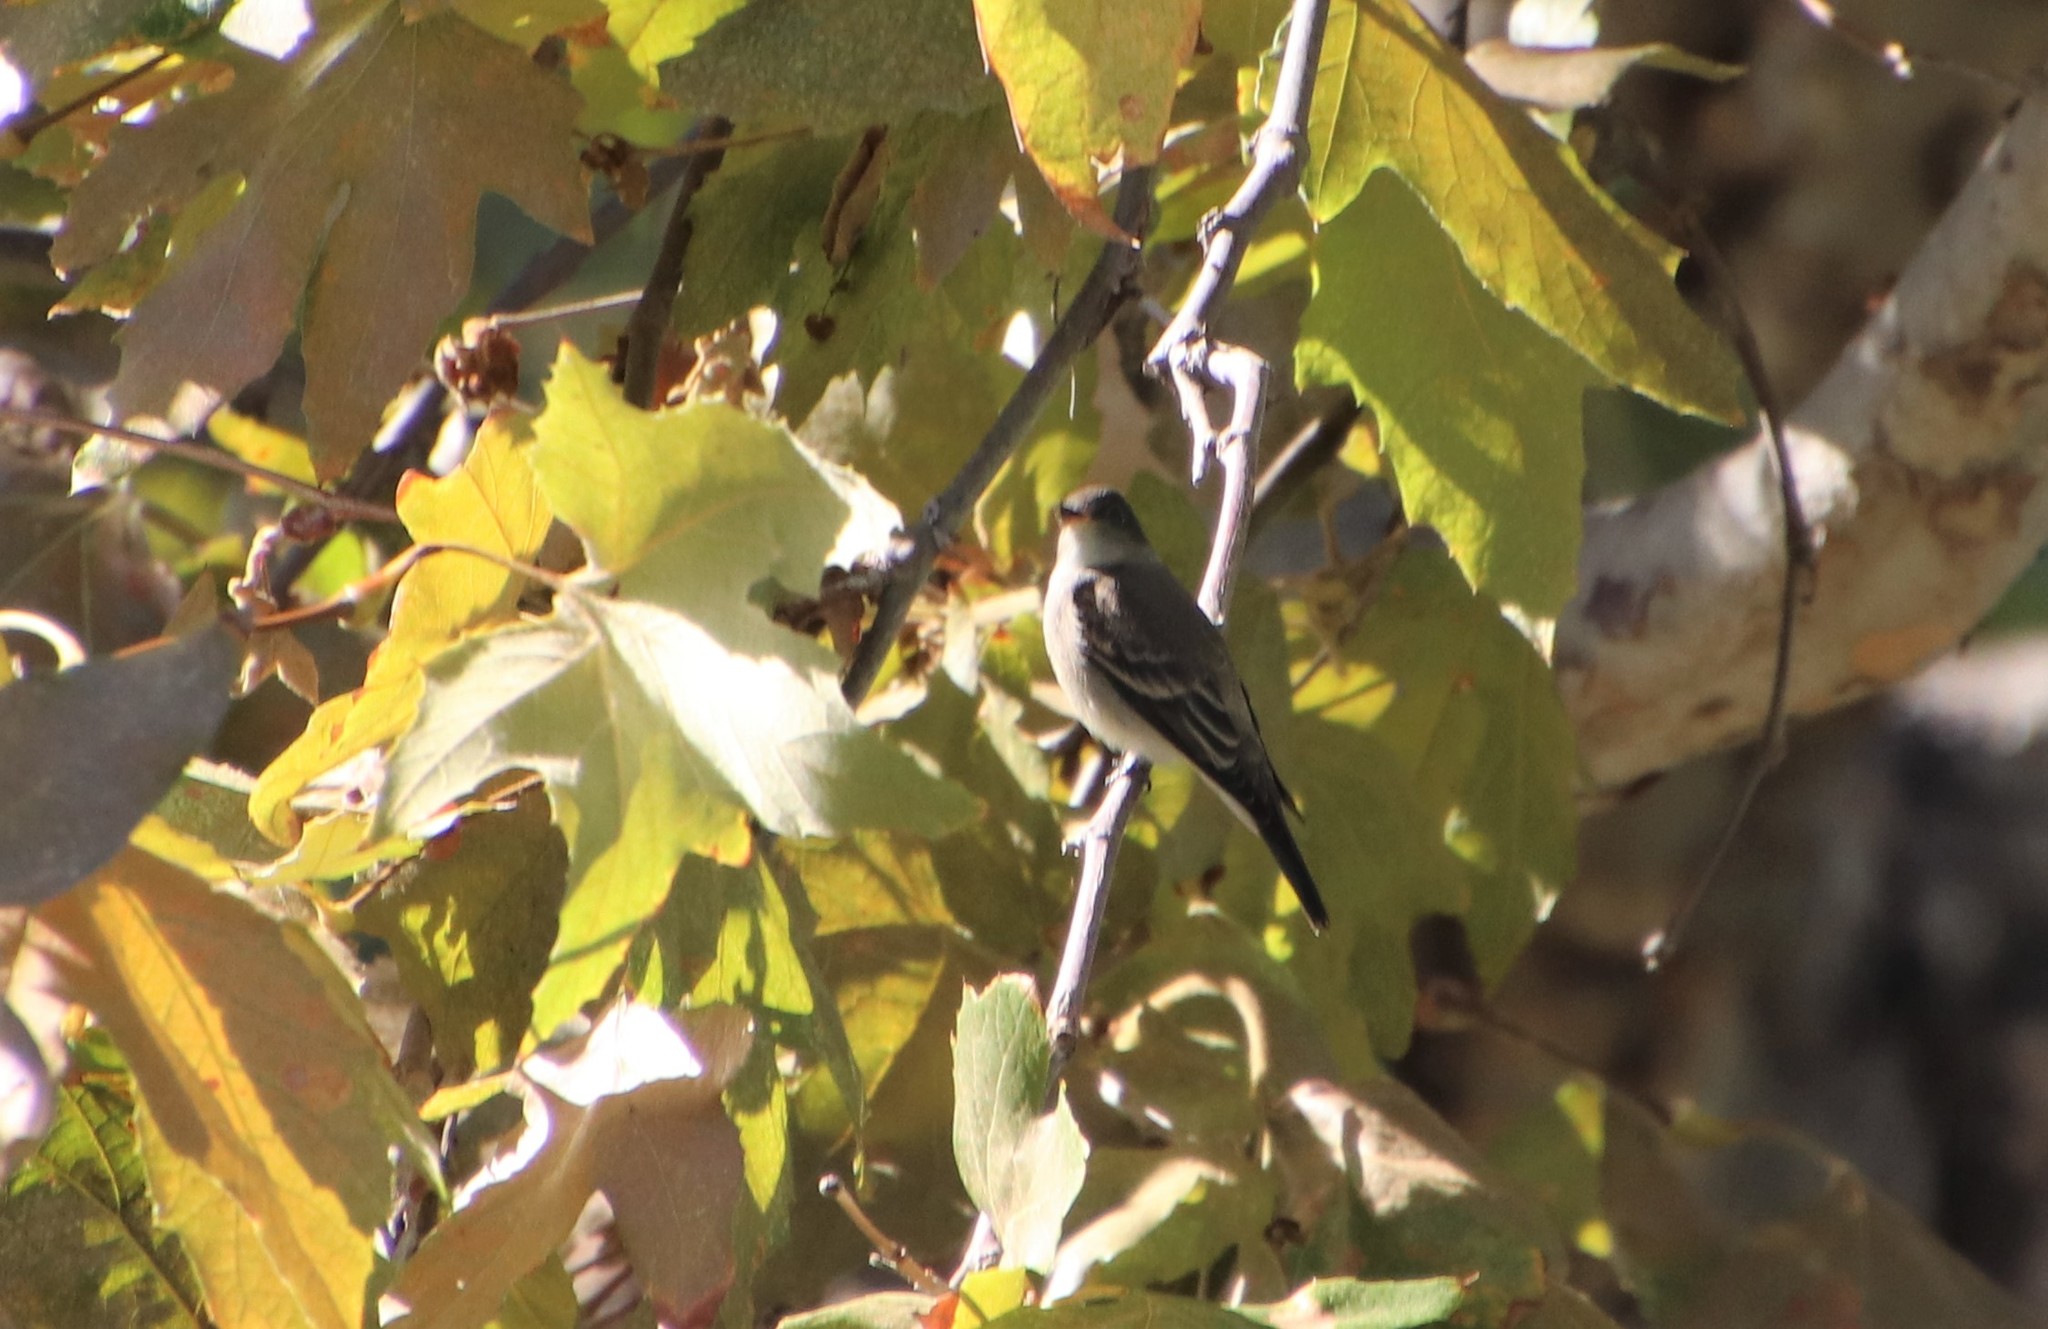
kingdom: Animalia
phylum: Chordata
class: Aves
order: Passeriformes
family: Tyrannidae
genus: Contopus
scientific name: Contopus sordidulus
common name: Western wood-pewee
